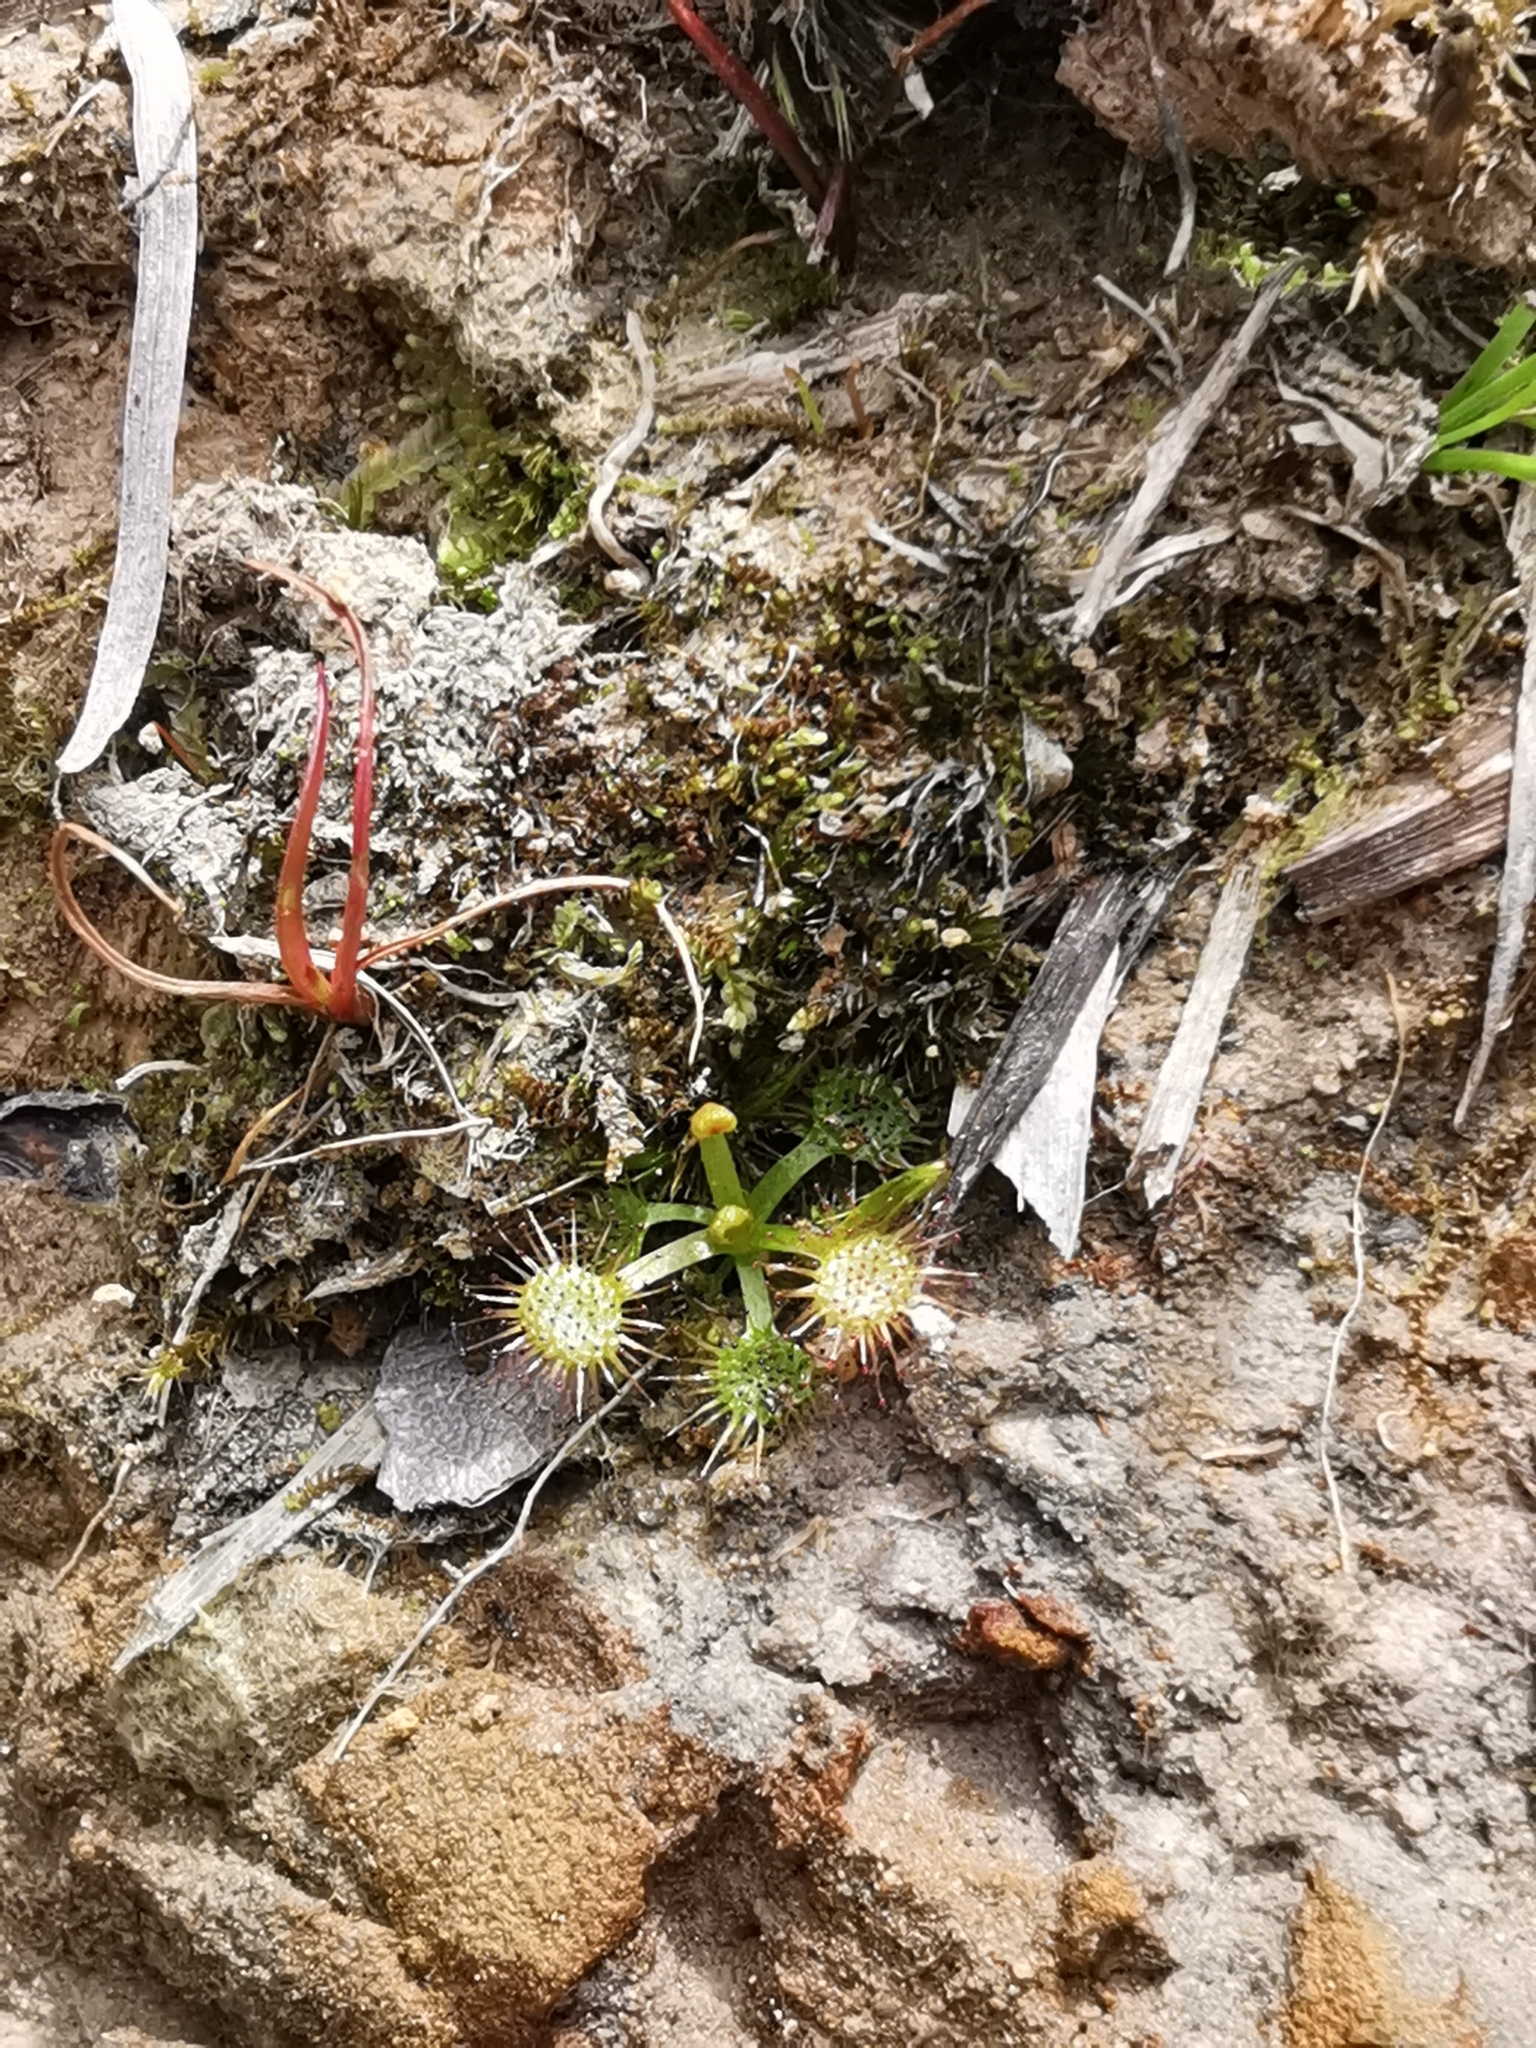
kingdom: Plantae
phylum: Tracheophyta
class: Magnoliopsida
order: Caryophyllales
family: Droseraceae
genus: Drosera
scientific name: Drosera peltata
